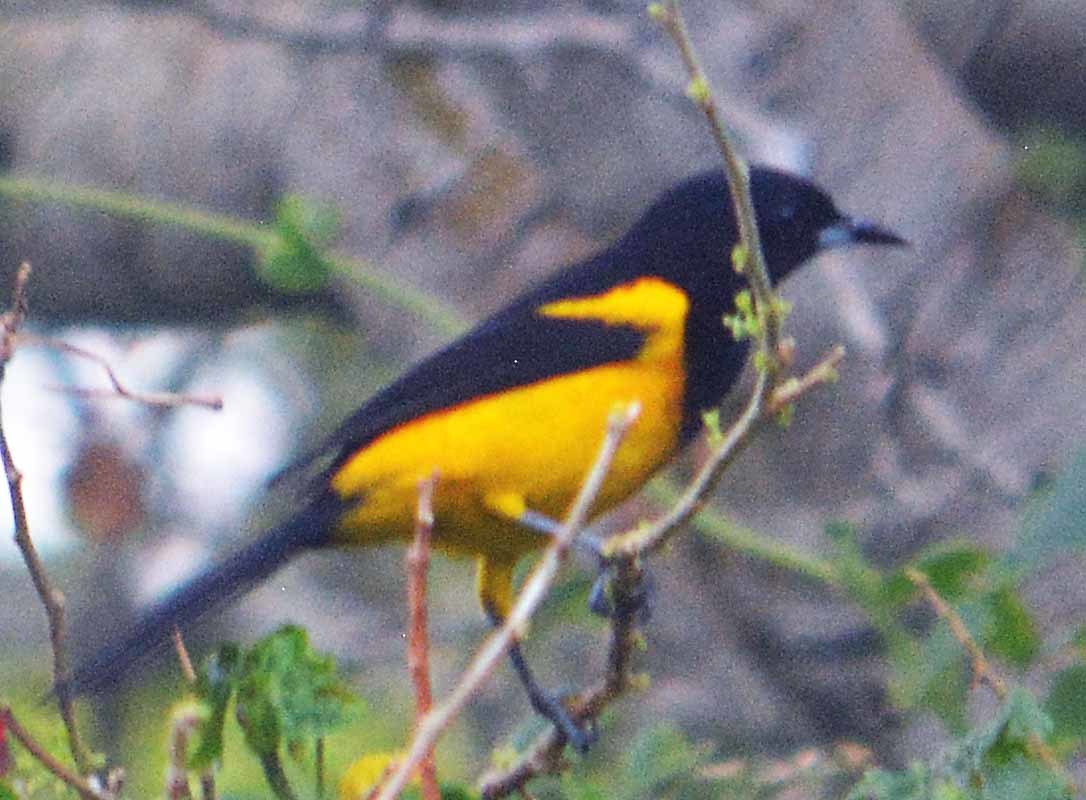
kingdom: Animalia
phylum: Chordata
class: Aves
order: Passeriformes
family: Icteridae
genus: Icterus
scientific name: Icterus prosthemelas
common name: Black-cowled oriole
